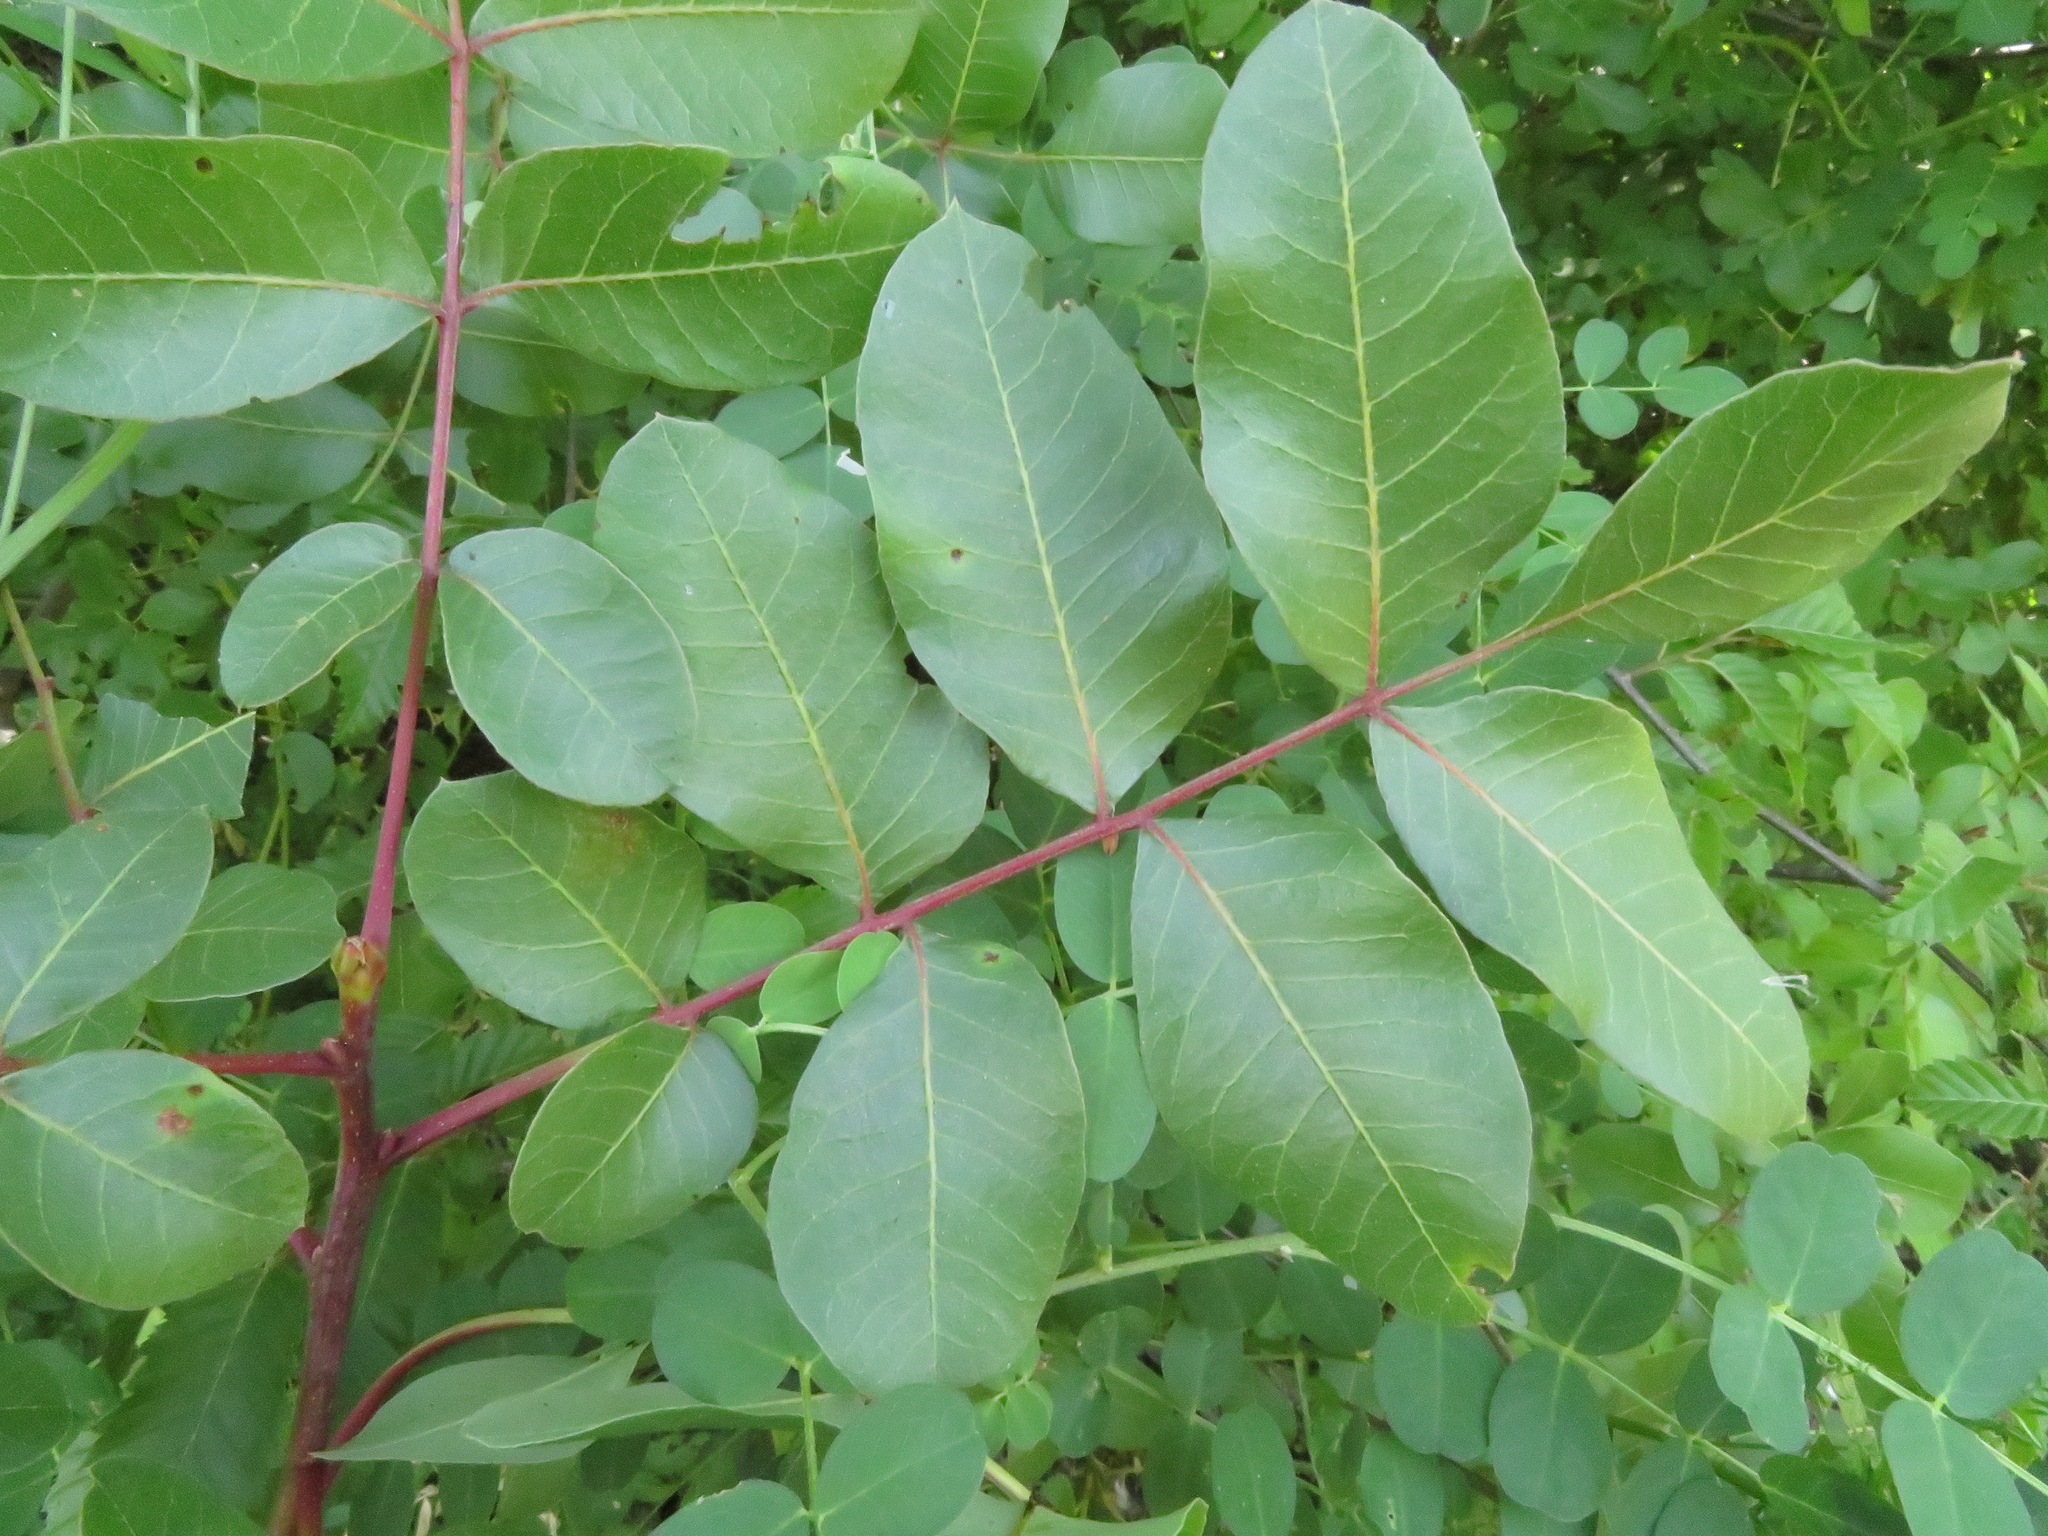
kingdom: Plantae
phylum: Tracheophyta
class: Magnoliopsida
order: Sapindales
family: Anacardiaceae
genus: Pistacia
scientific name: Pistacia terebinthus
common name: Terebinth
